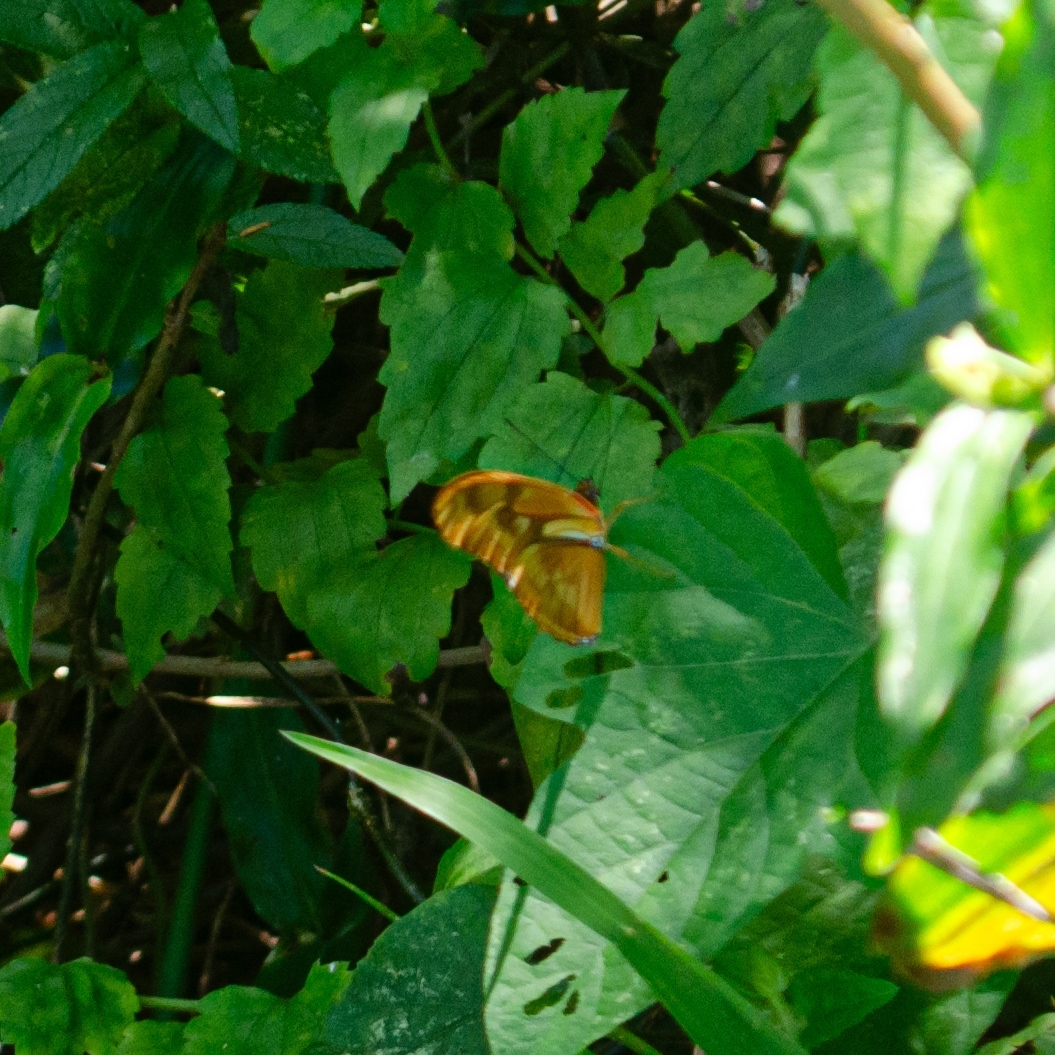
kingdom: Animalia
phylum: Arthropoda
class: Insecta
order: Lepidoptera
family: Nymphalidae
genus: Dryas
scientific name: Dryas iulia
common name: Flambeau
